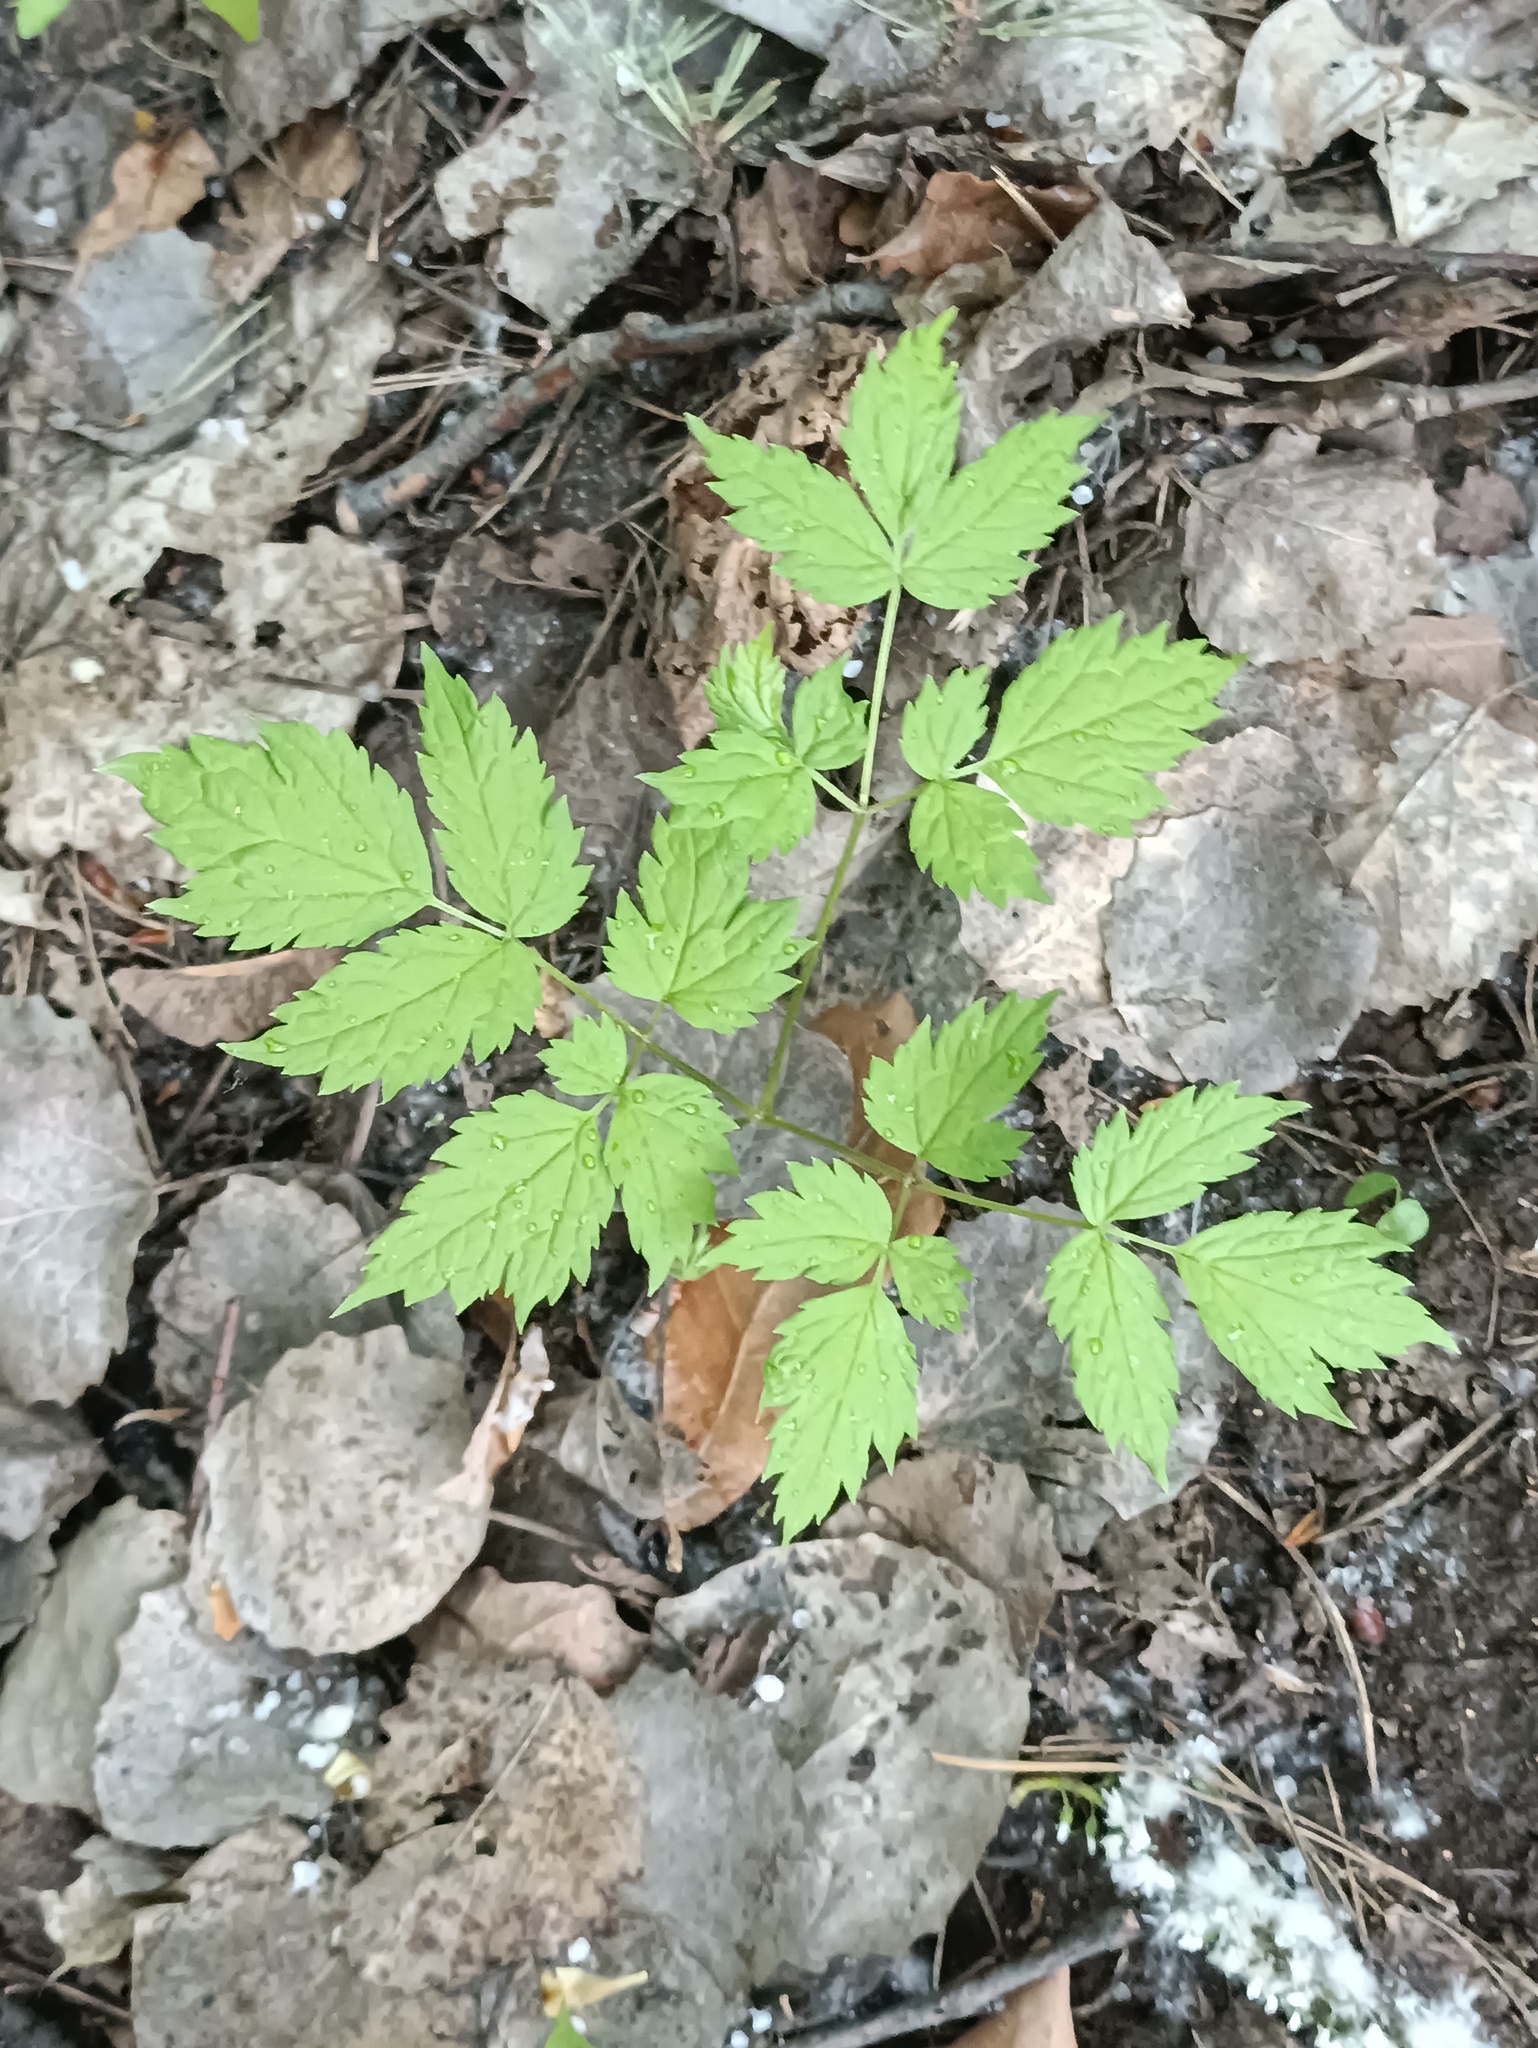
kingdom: Plantae
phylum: Tracheophyta
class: Magnoliopsida
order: Ranunculales
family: Ranunculaceae
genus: Actaea
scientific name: Actaea spicata
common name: Baneberry
